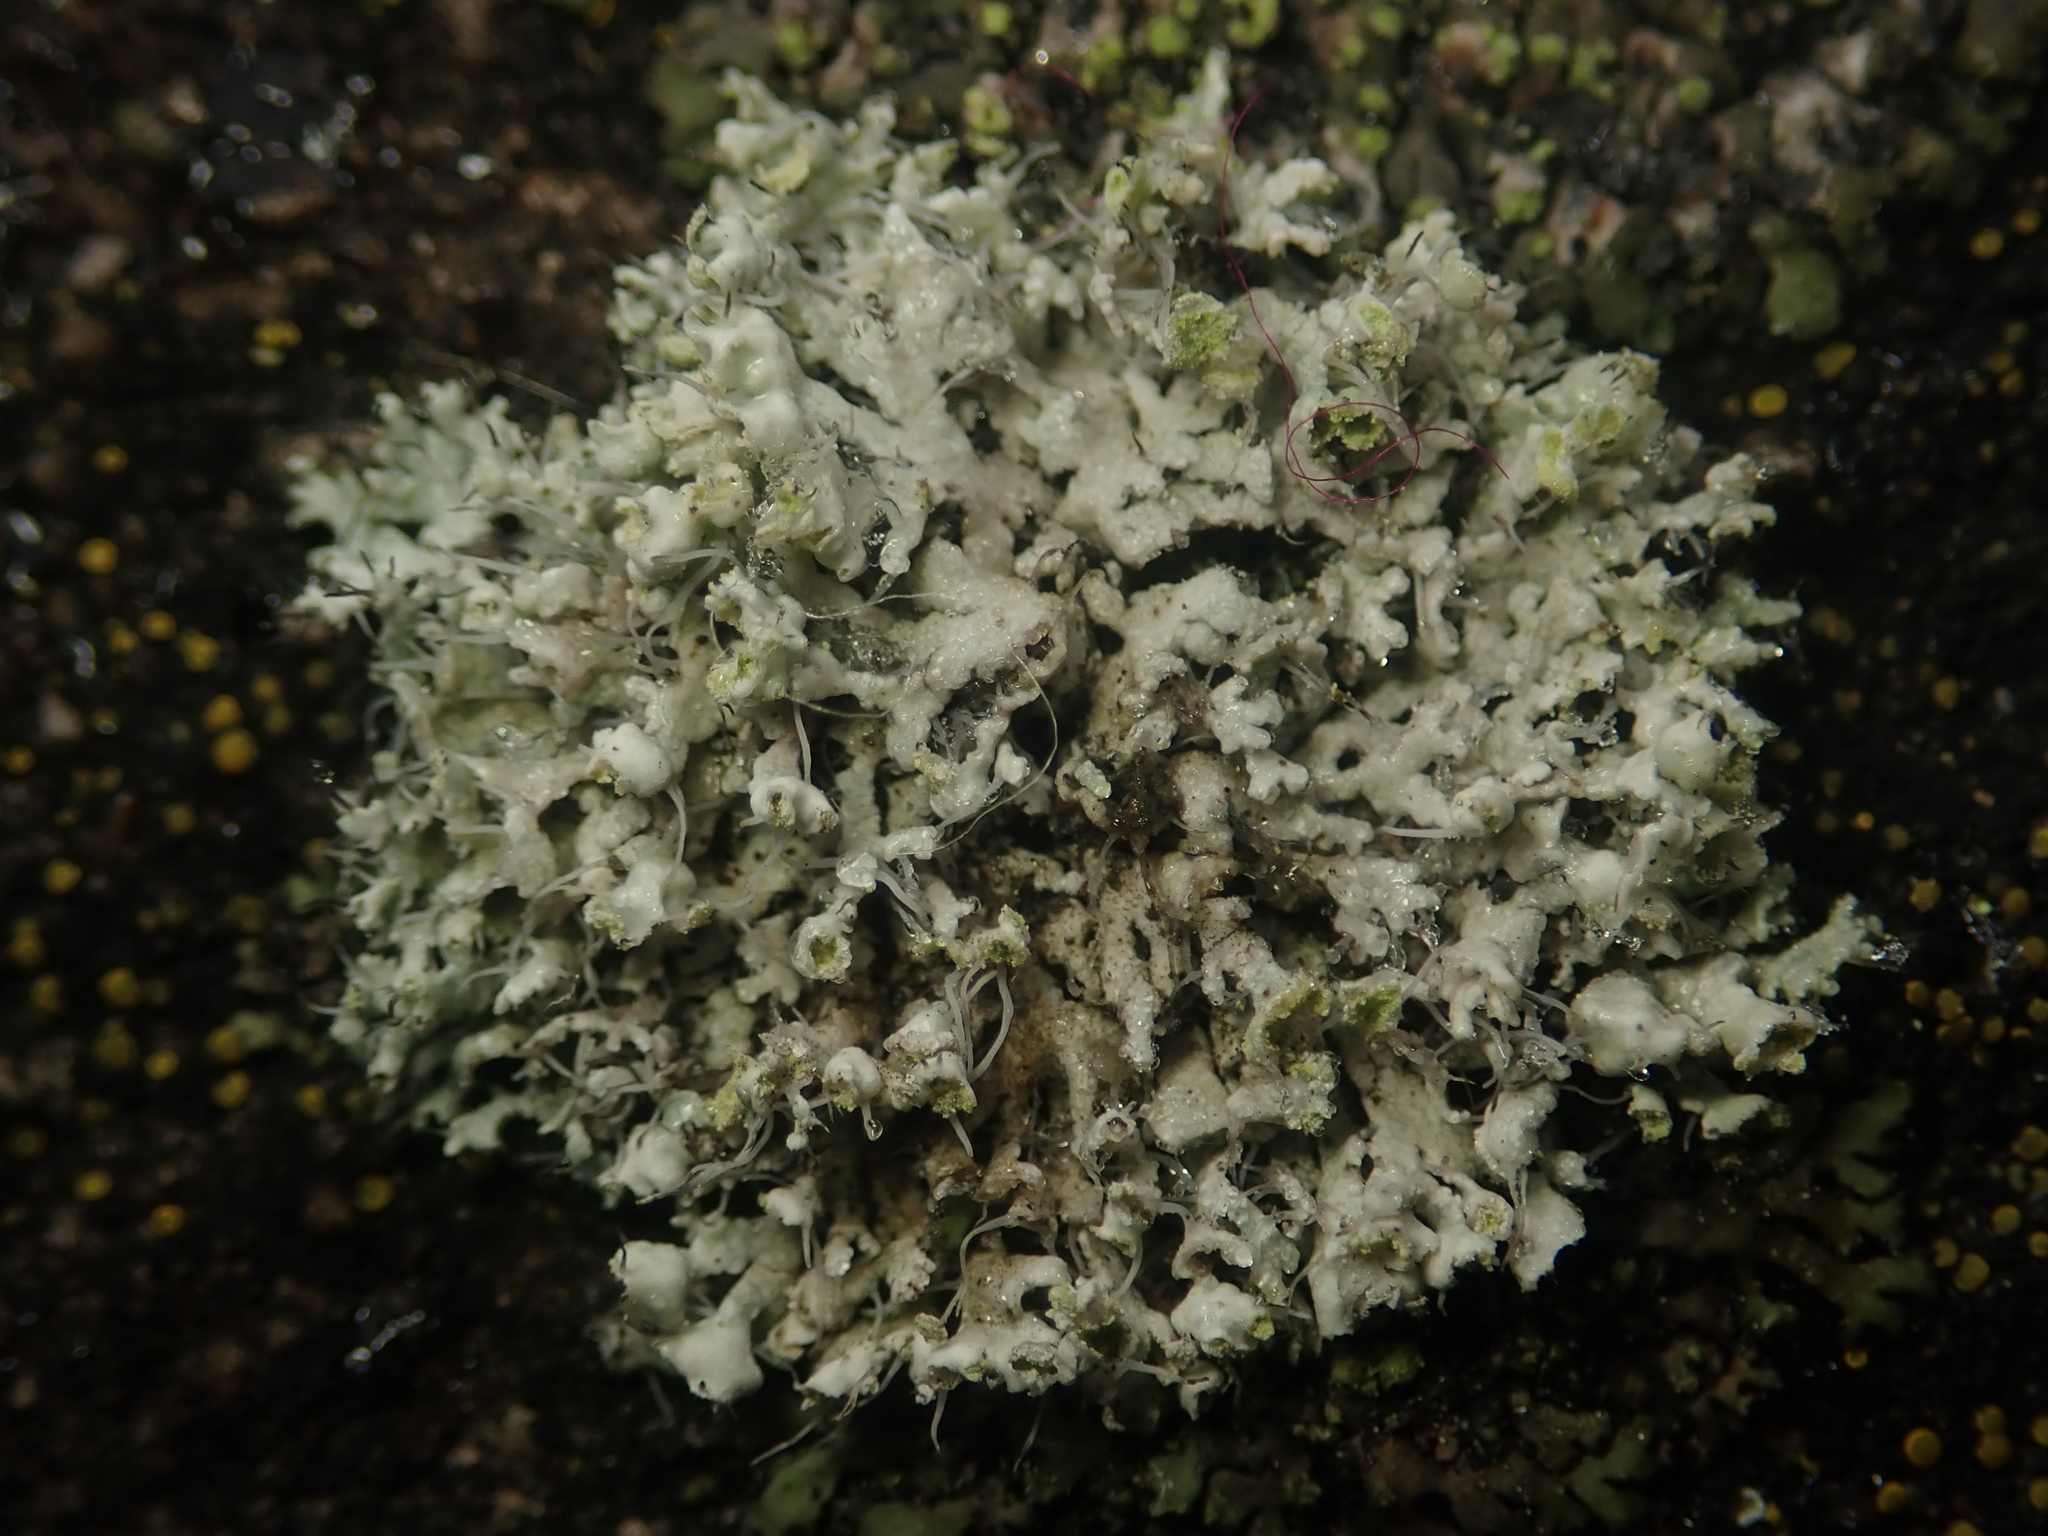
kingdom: Fungi
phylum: Ascomycota
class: Lecanoromycetes
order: Caliciales
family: Physciaceae
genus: Physcia
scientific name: Physcia adscendens
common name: Hooded rosette lichen
